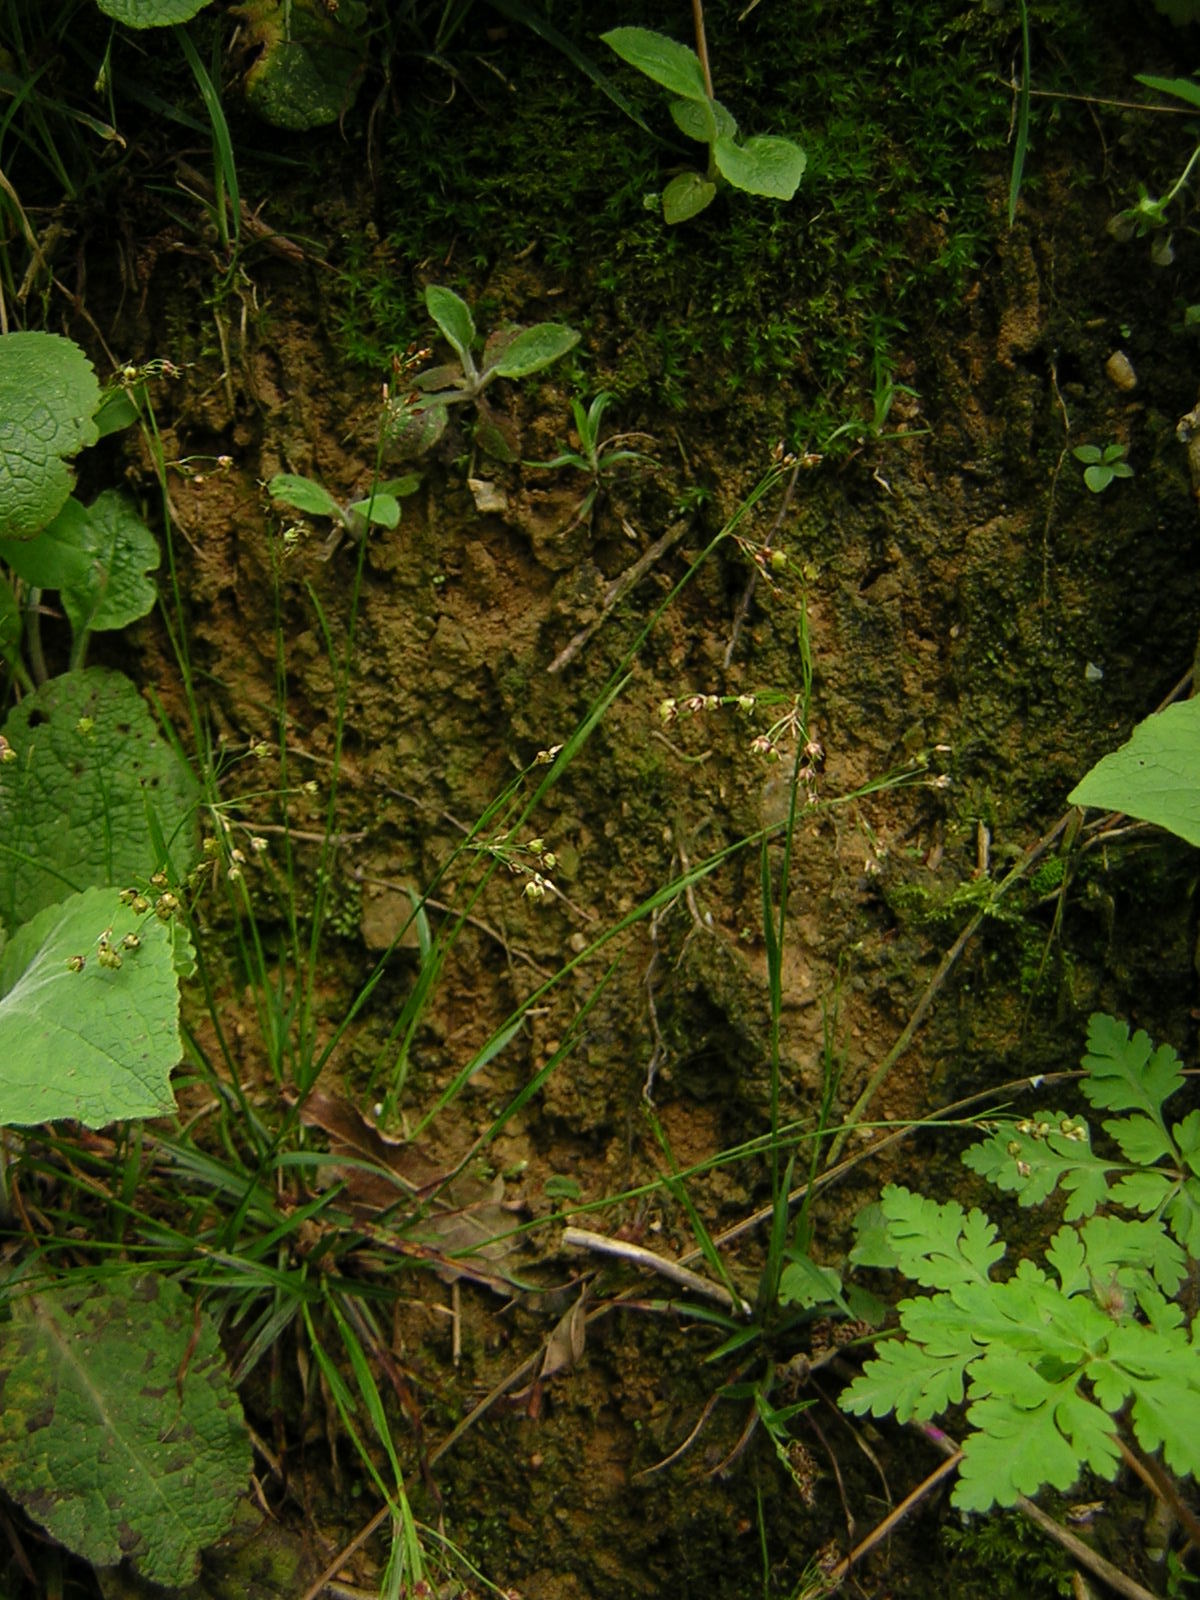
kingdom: Plantae
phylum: Tracheophyta
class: Liliopsida
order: Poales
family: Juncaceae
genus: Luzula
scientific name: Luzula pilosa
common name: Hairy wood-rush
